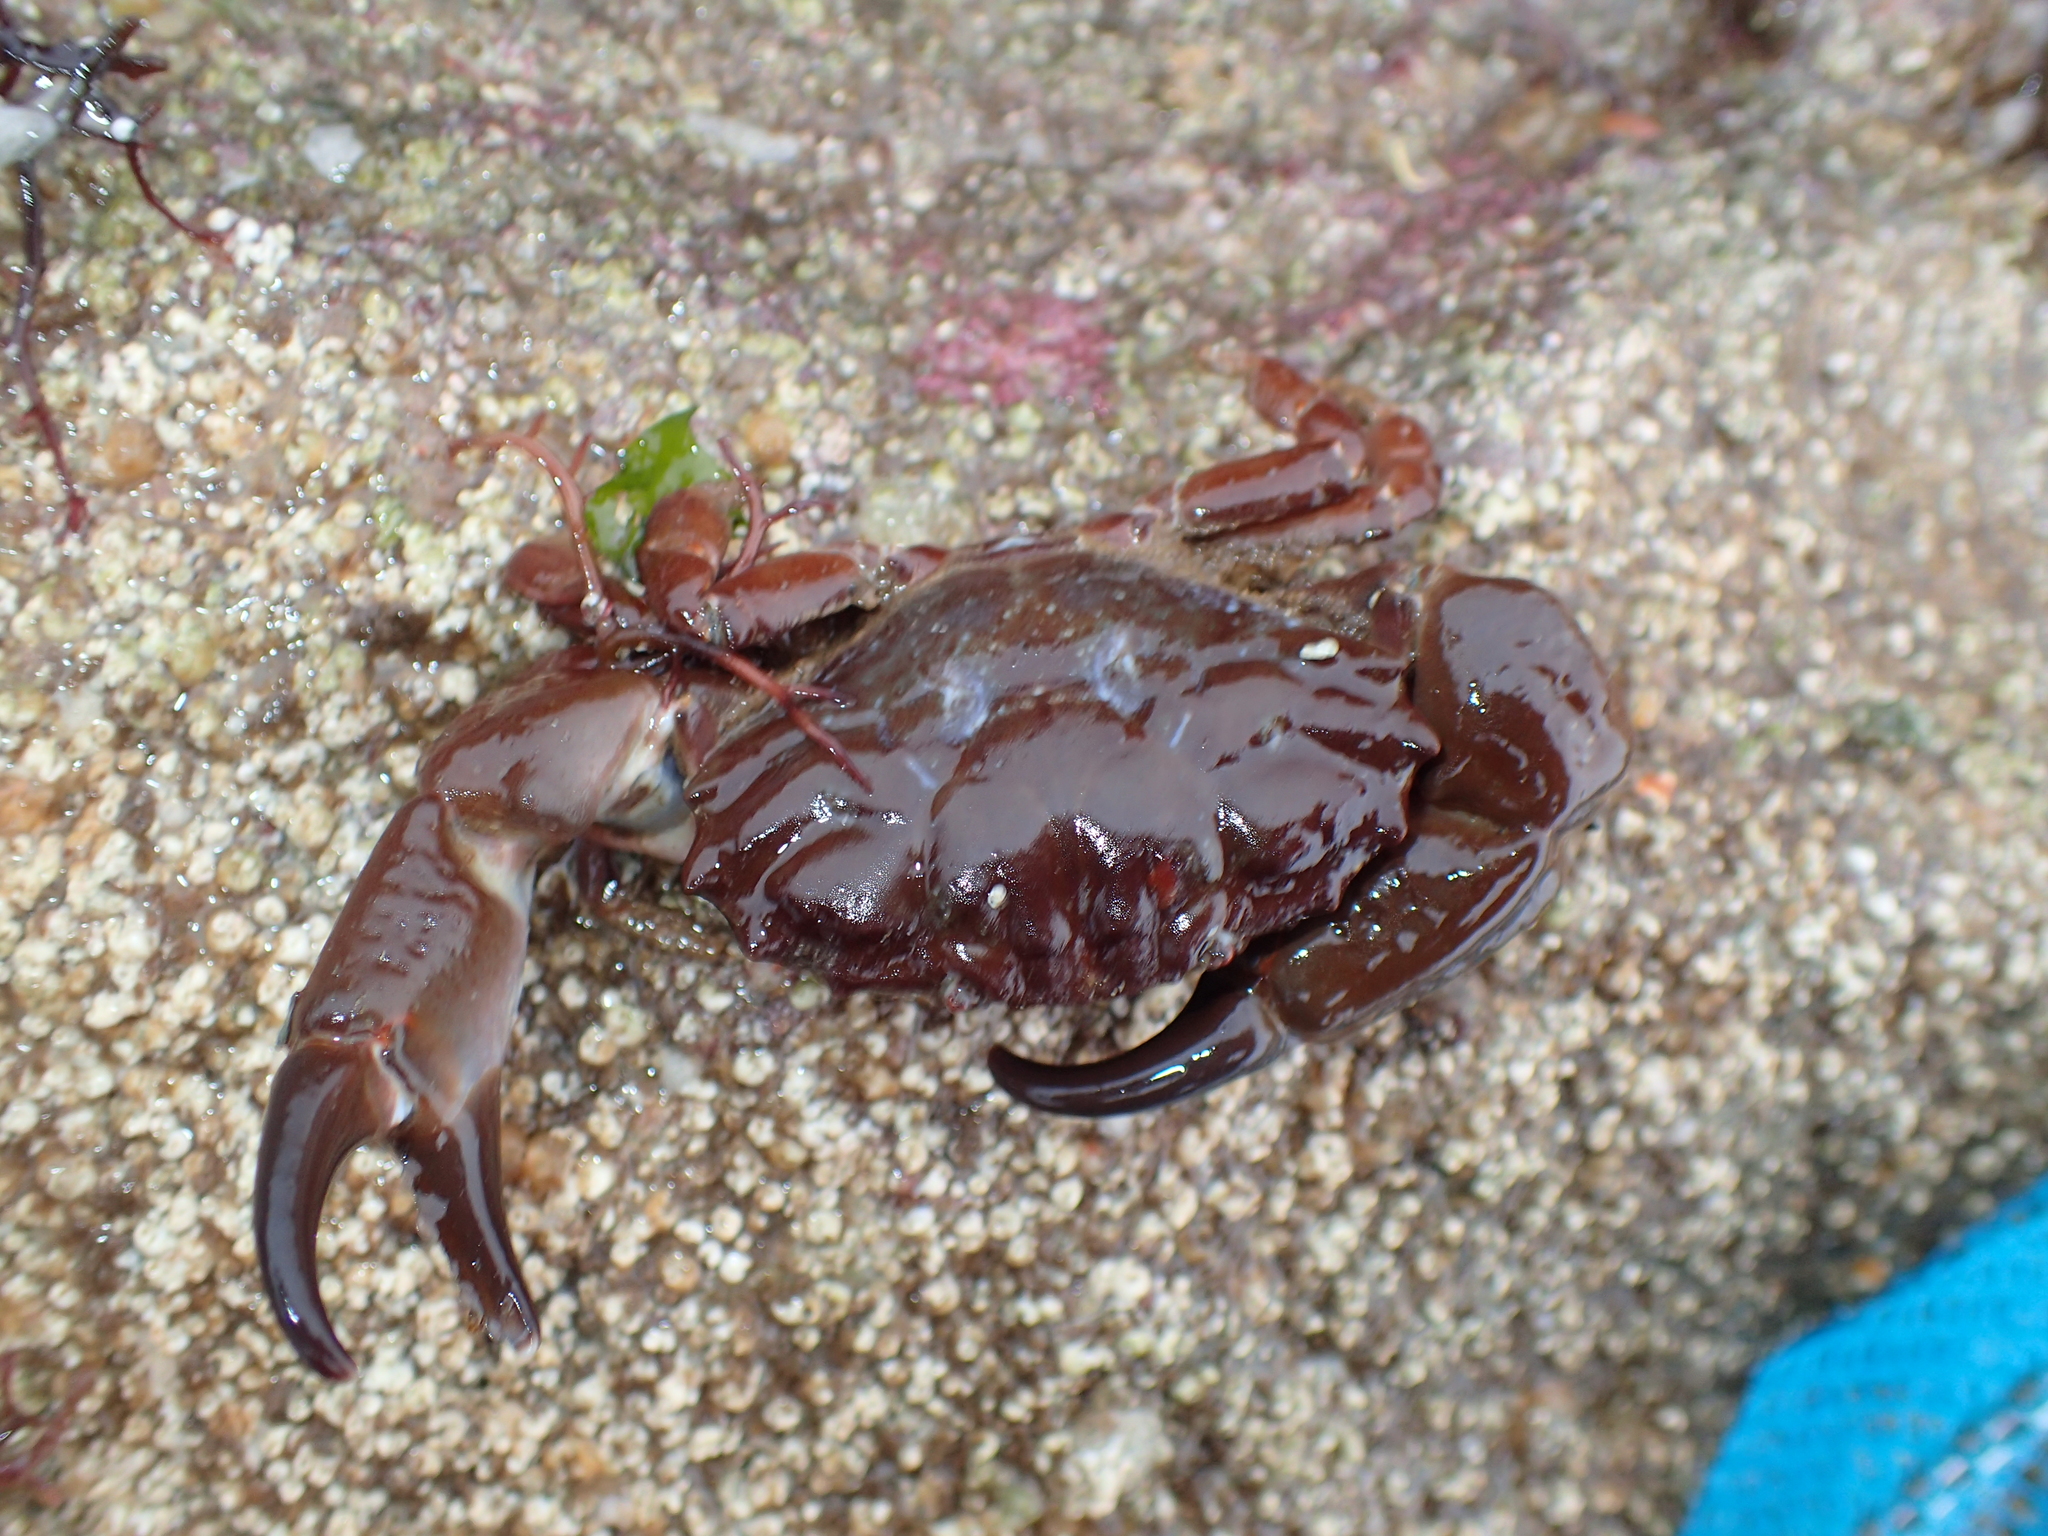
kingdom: Animalia
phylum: Arthropoda
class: Malacostraca
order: Decapoda
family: Xanthidae
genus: Xantho
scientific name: Xantho hydrophilus
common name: Montagu's crab
